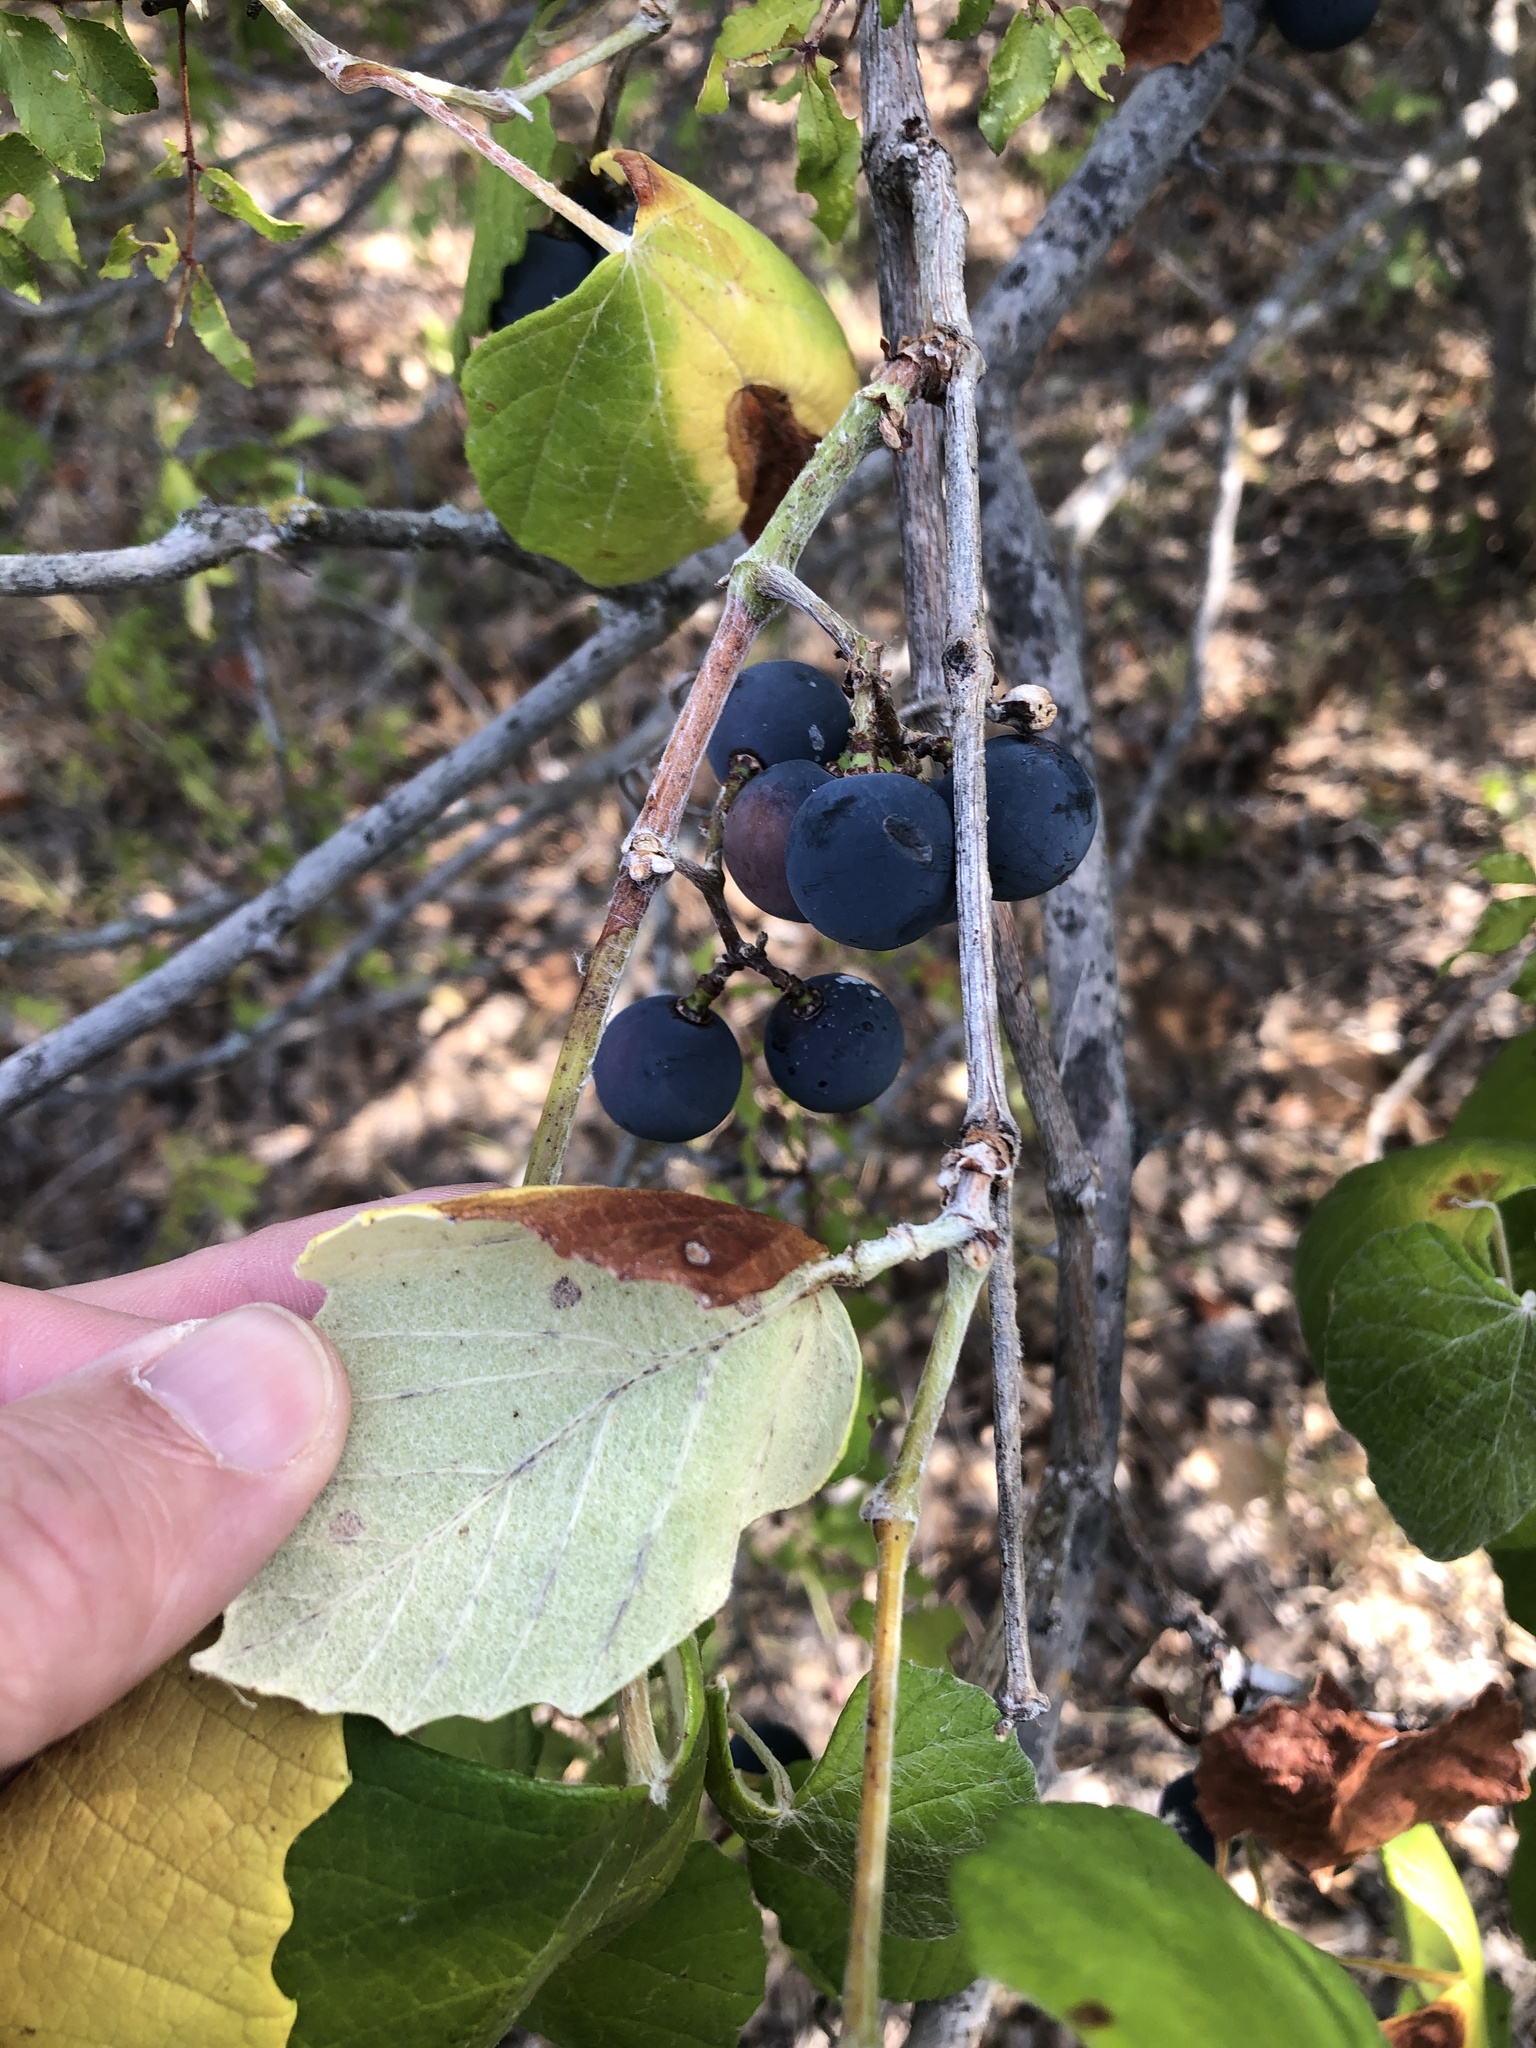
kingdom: Plantae
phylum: Tracheophyta
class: Magnoliopsida
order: Vitales
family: Vitaceae
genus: Vitis
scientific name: Vitis mustangensis
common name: Mustang grape
